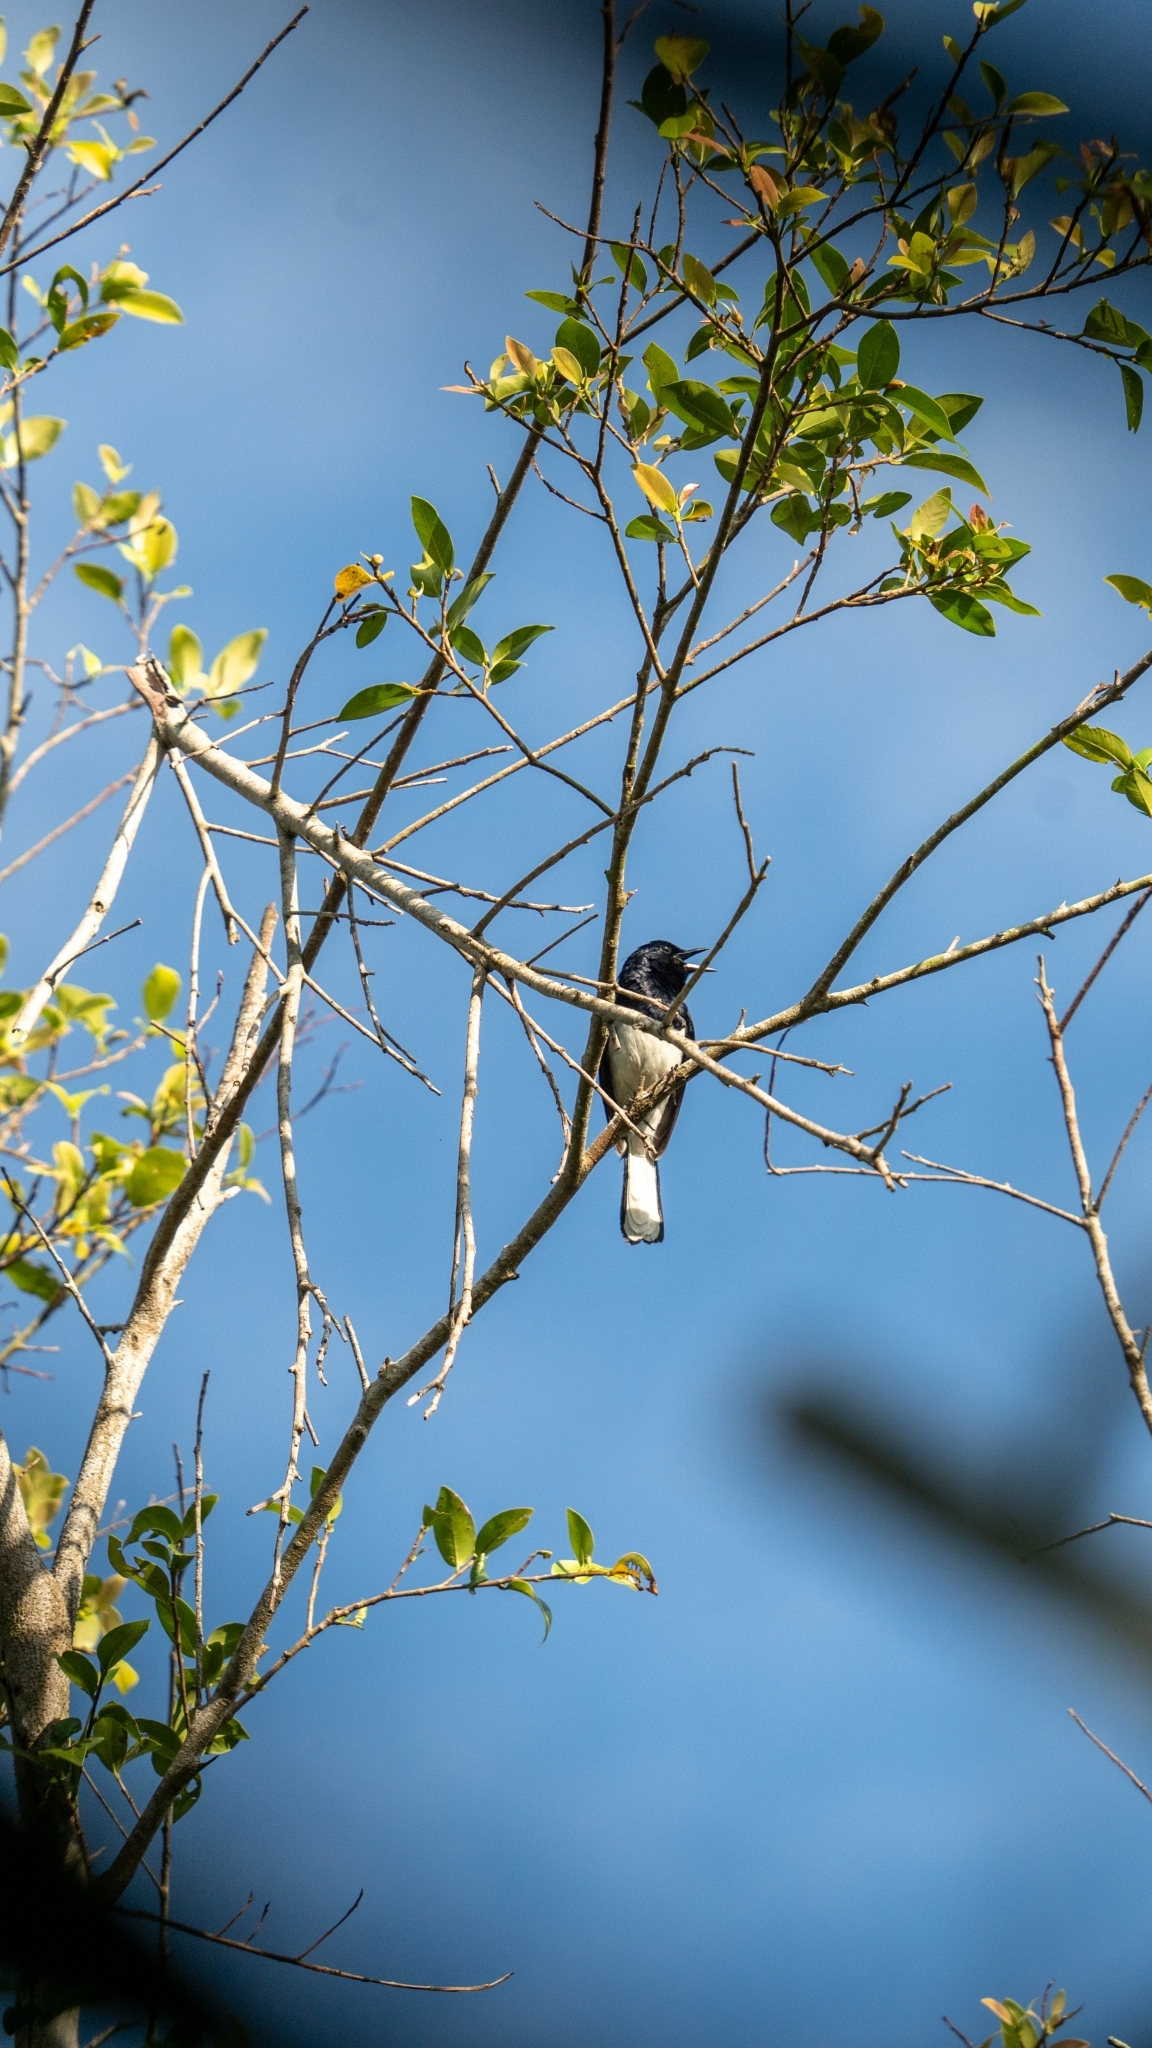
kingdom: Animalia
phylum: Chordata
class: Aves
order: Passeriformes
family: Muscicapidae
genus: Copsychus
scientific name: Copsychus saularis
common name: Oriental magpie-robin
